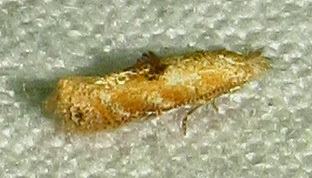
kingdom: Animalia
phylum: Arthropoda
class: Insecta
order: Lepidoptera
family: Bucculatricidae
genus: Bucculatrix
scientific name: Bucculatrix coronatella
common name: Crowned bucculatrix moth
